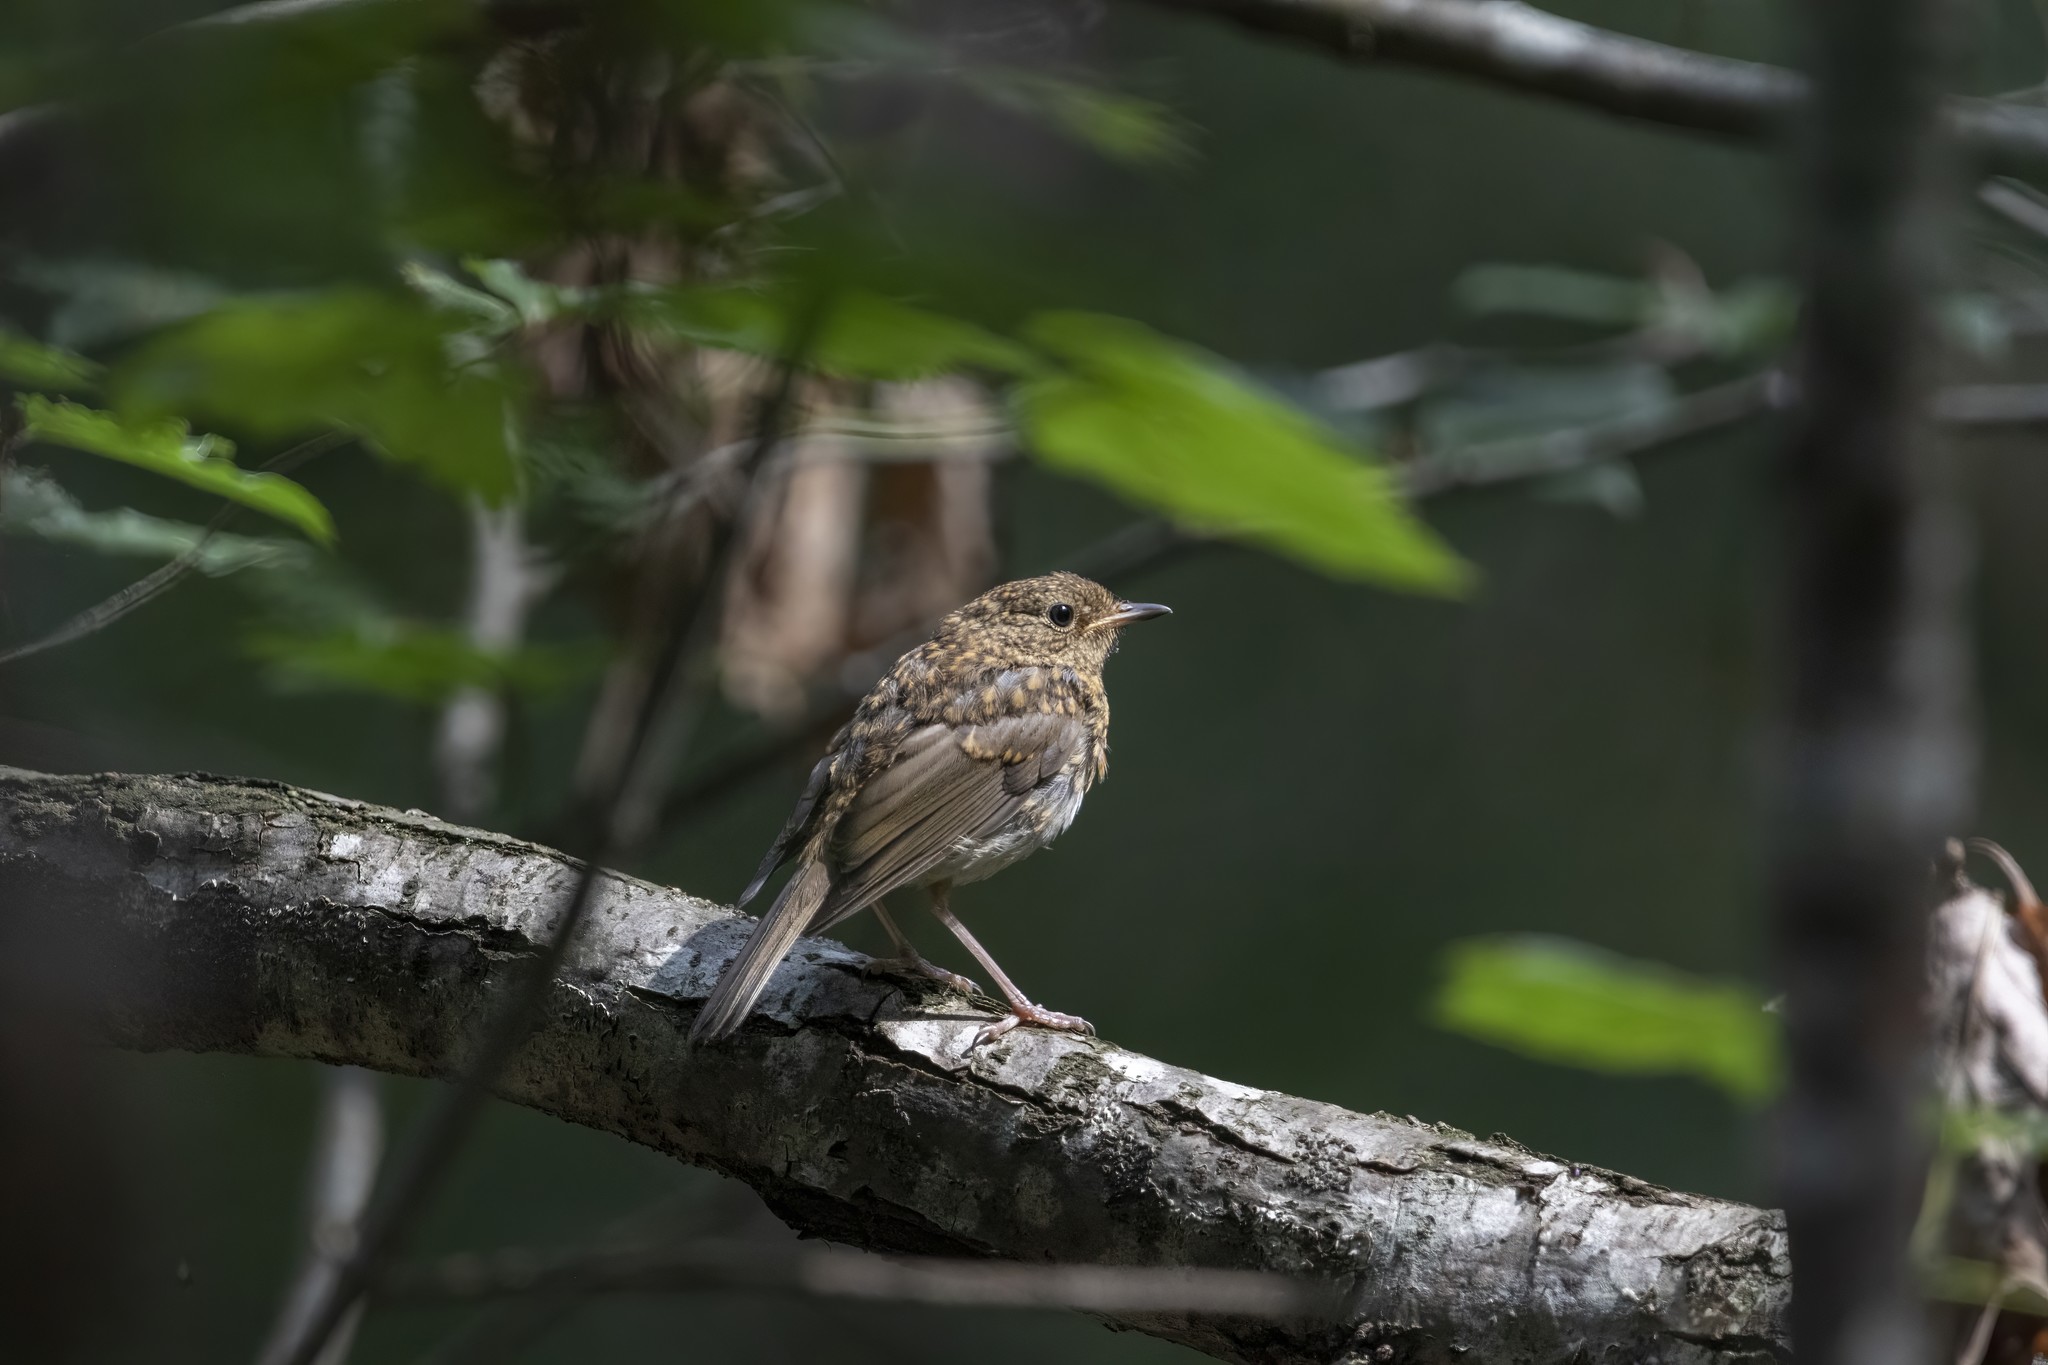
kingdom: Animalia
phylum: Chordata
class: Aves
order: Passeriformes
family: Muscicapidae
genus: Erithacus
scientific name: Erithacus rubecula
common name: European robin
